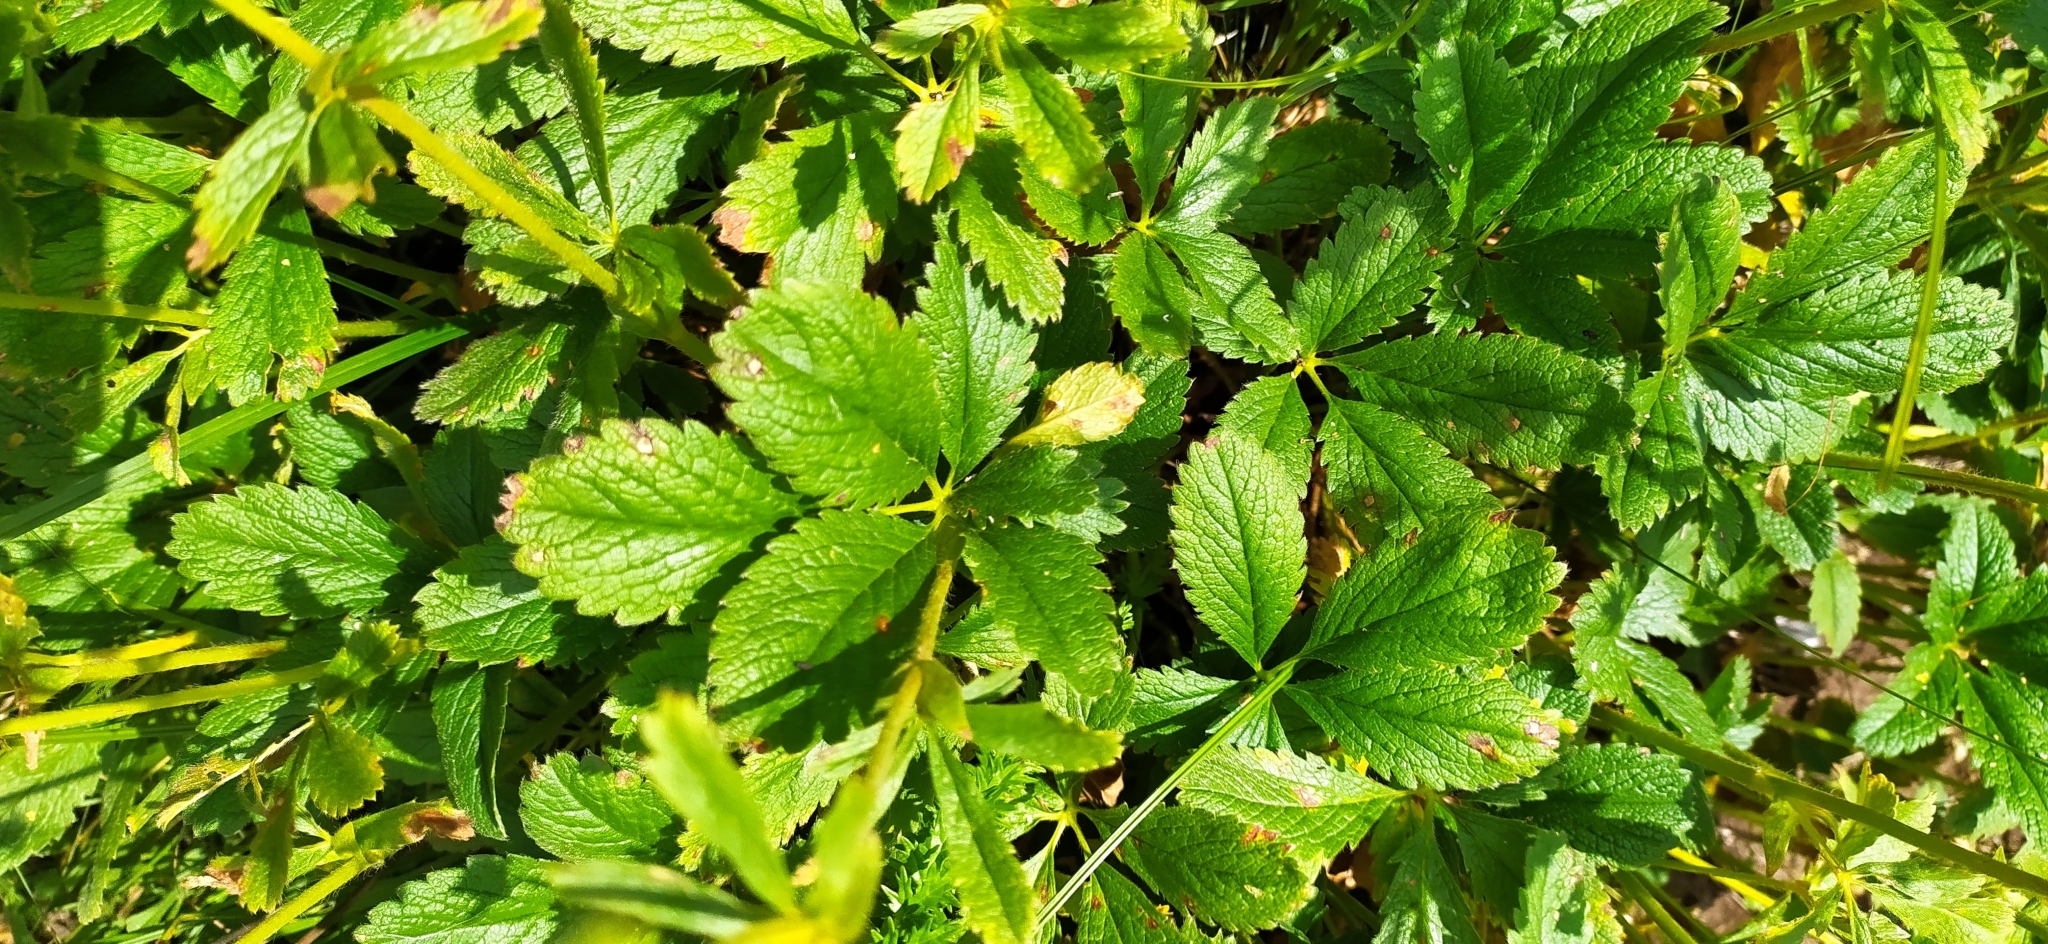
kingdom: Plantae
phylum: Tracheophyta
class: Magnoliopsida
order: Rosales
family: Rosaceae
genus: Potentilla
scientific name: Potentilla umbrosa
